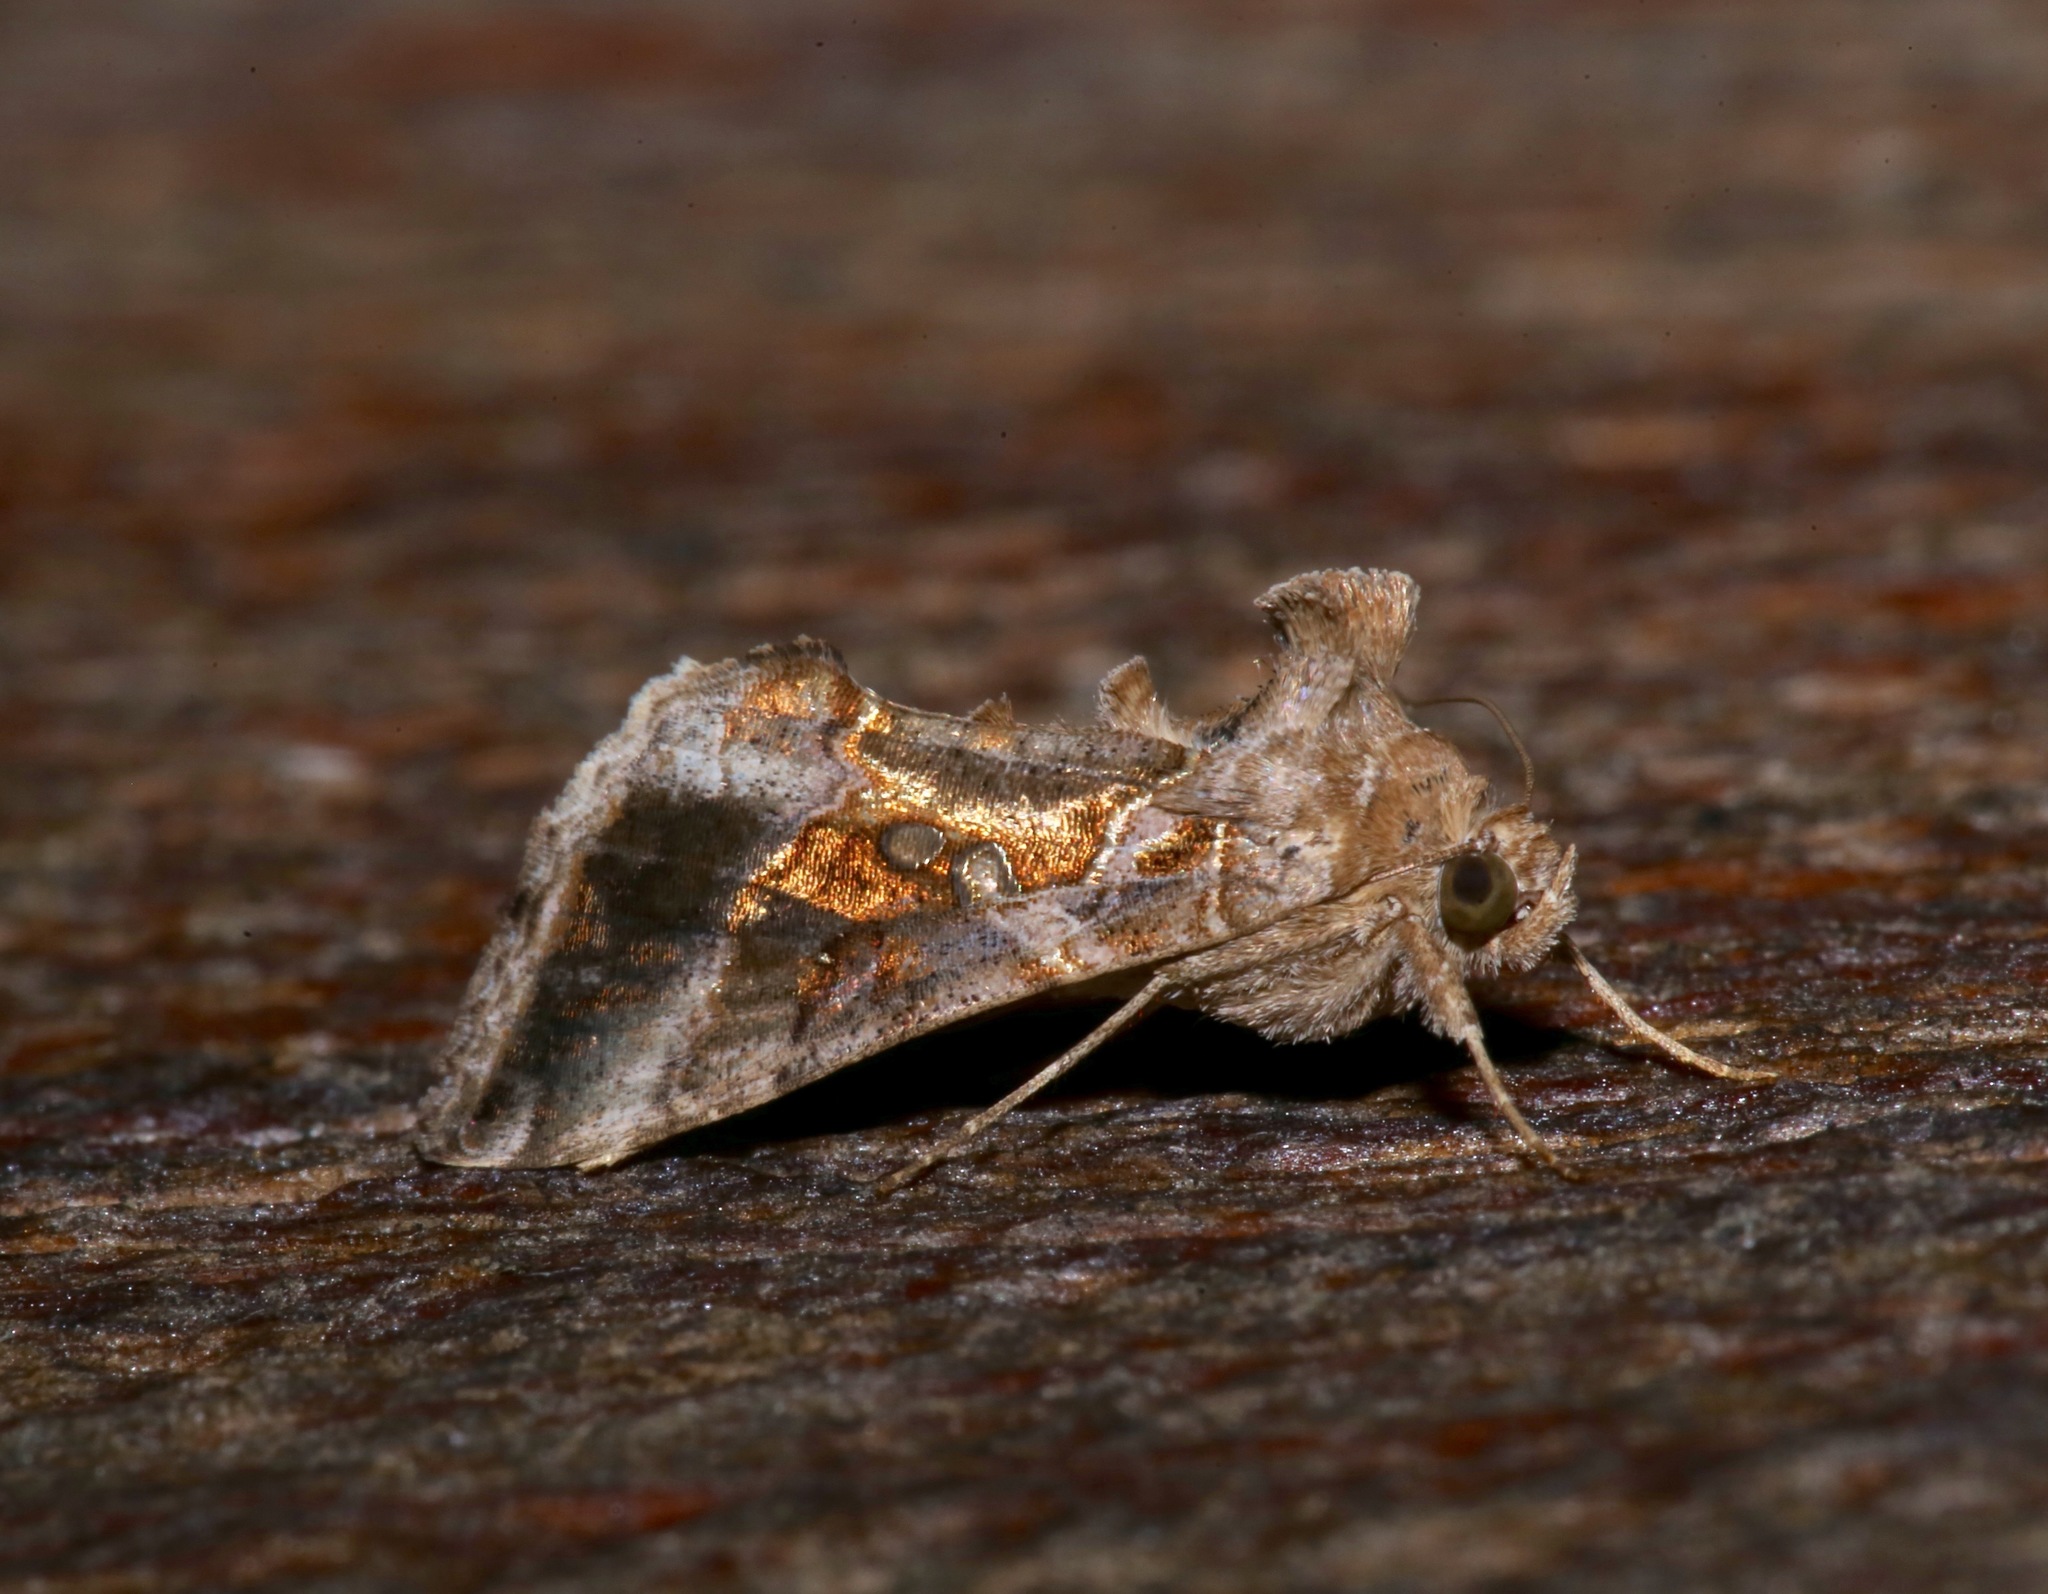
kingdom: Animalia
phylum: Arthropoda
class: Insecta
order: Lepidoptera
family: Noctuidae
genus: Chrysodeixis
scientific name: Chrysodeixis includens
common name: Cutworm moth
